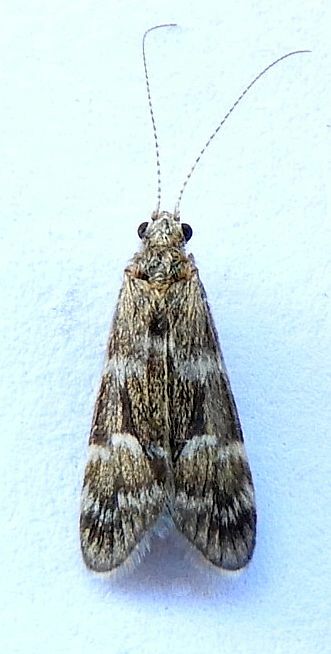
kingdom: Animalia
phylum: Arthropoda
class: Insecta
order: Trichoptera
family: Hydropsychidae
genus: Smicridea
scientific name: Smicridea fasciatella
